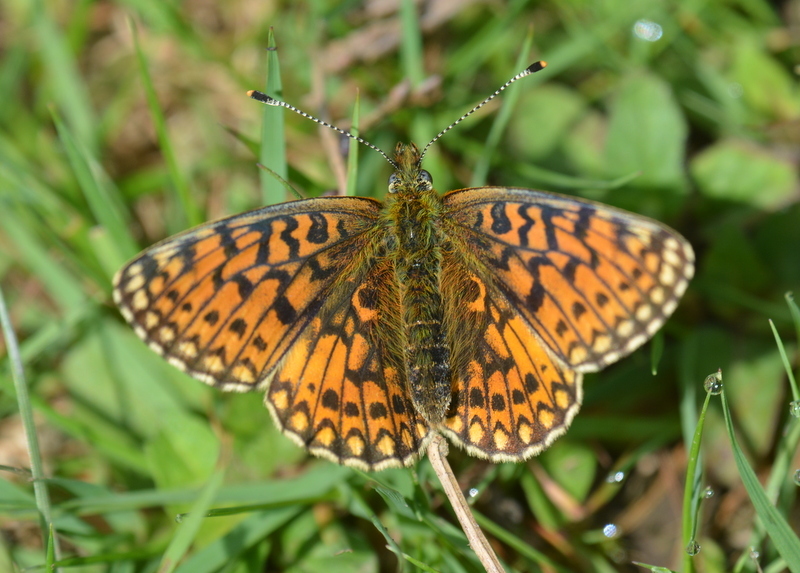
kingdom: Animalia
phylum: Arthropoda
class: Insecta
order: Lepidoptera
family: Nymphalidae
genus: Boloria
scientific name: Boloria selene
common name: Small pearl-bordered fritillary
